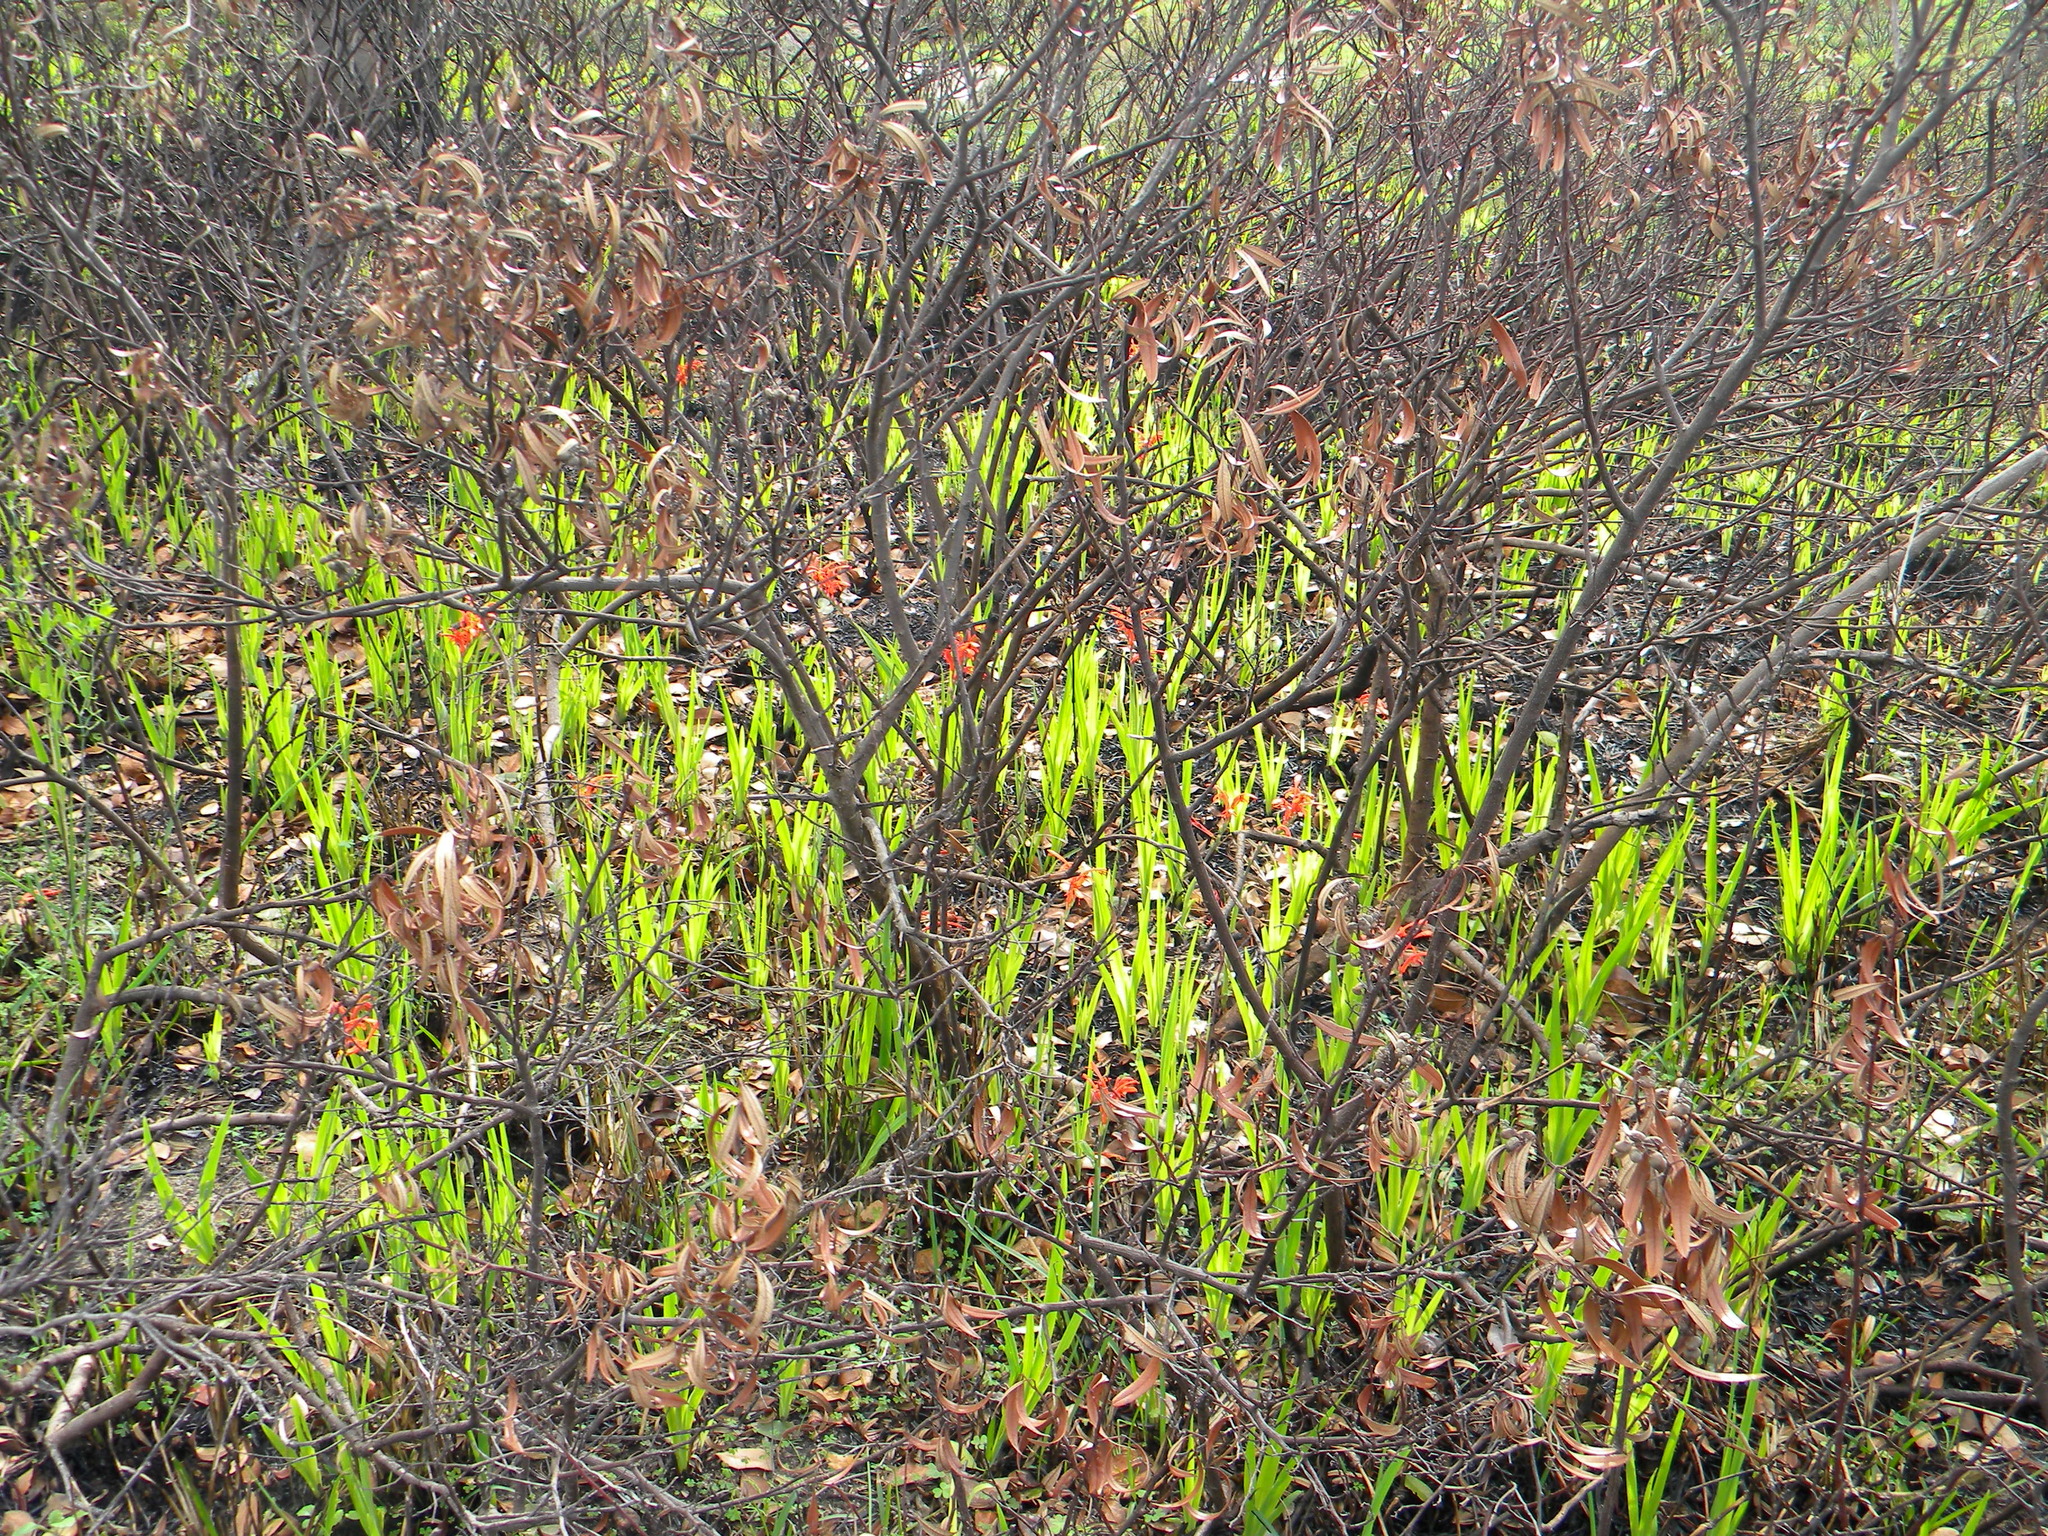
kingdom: Plantae
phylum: Tracheophyta
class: Liliopsida
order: Asparagales
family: Iridaceae
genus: Chasmanthe
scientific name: Chasmanthe aethiopica
